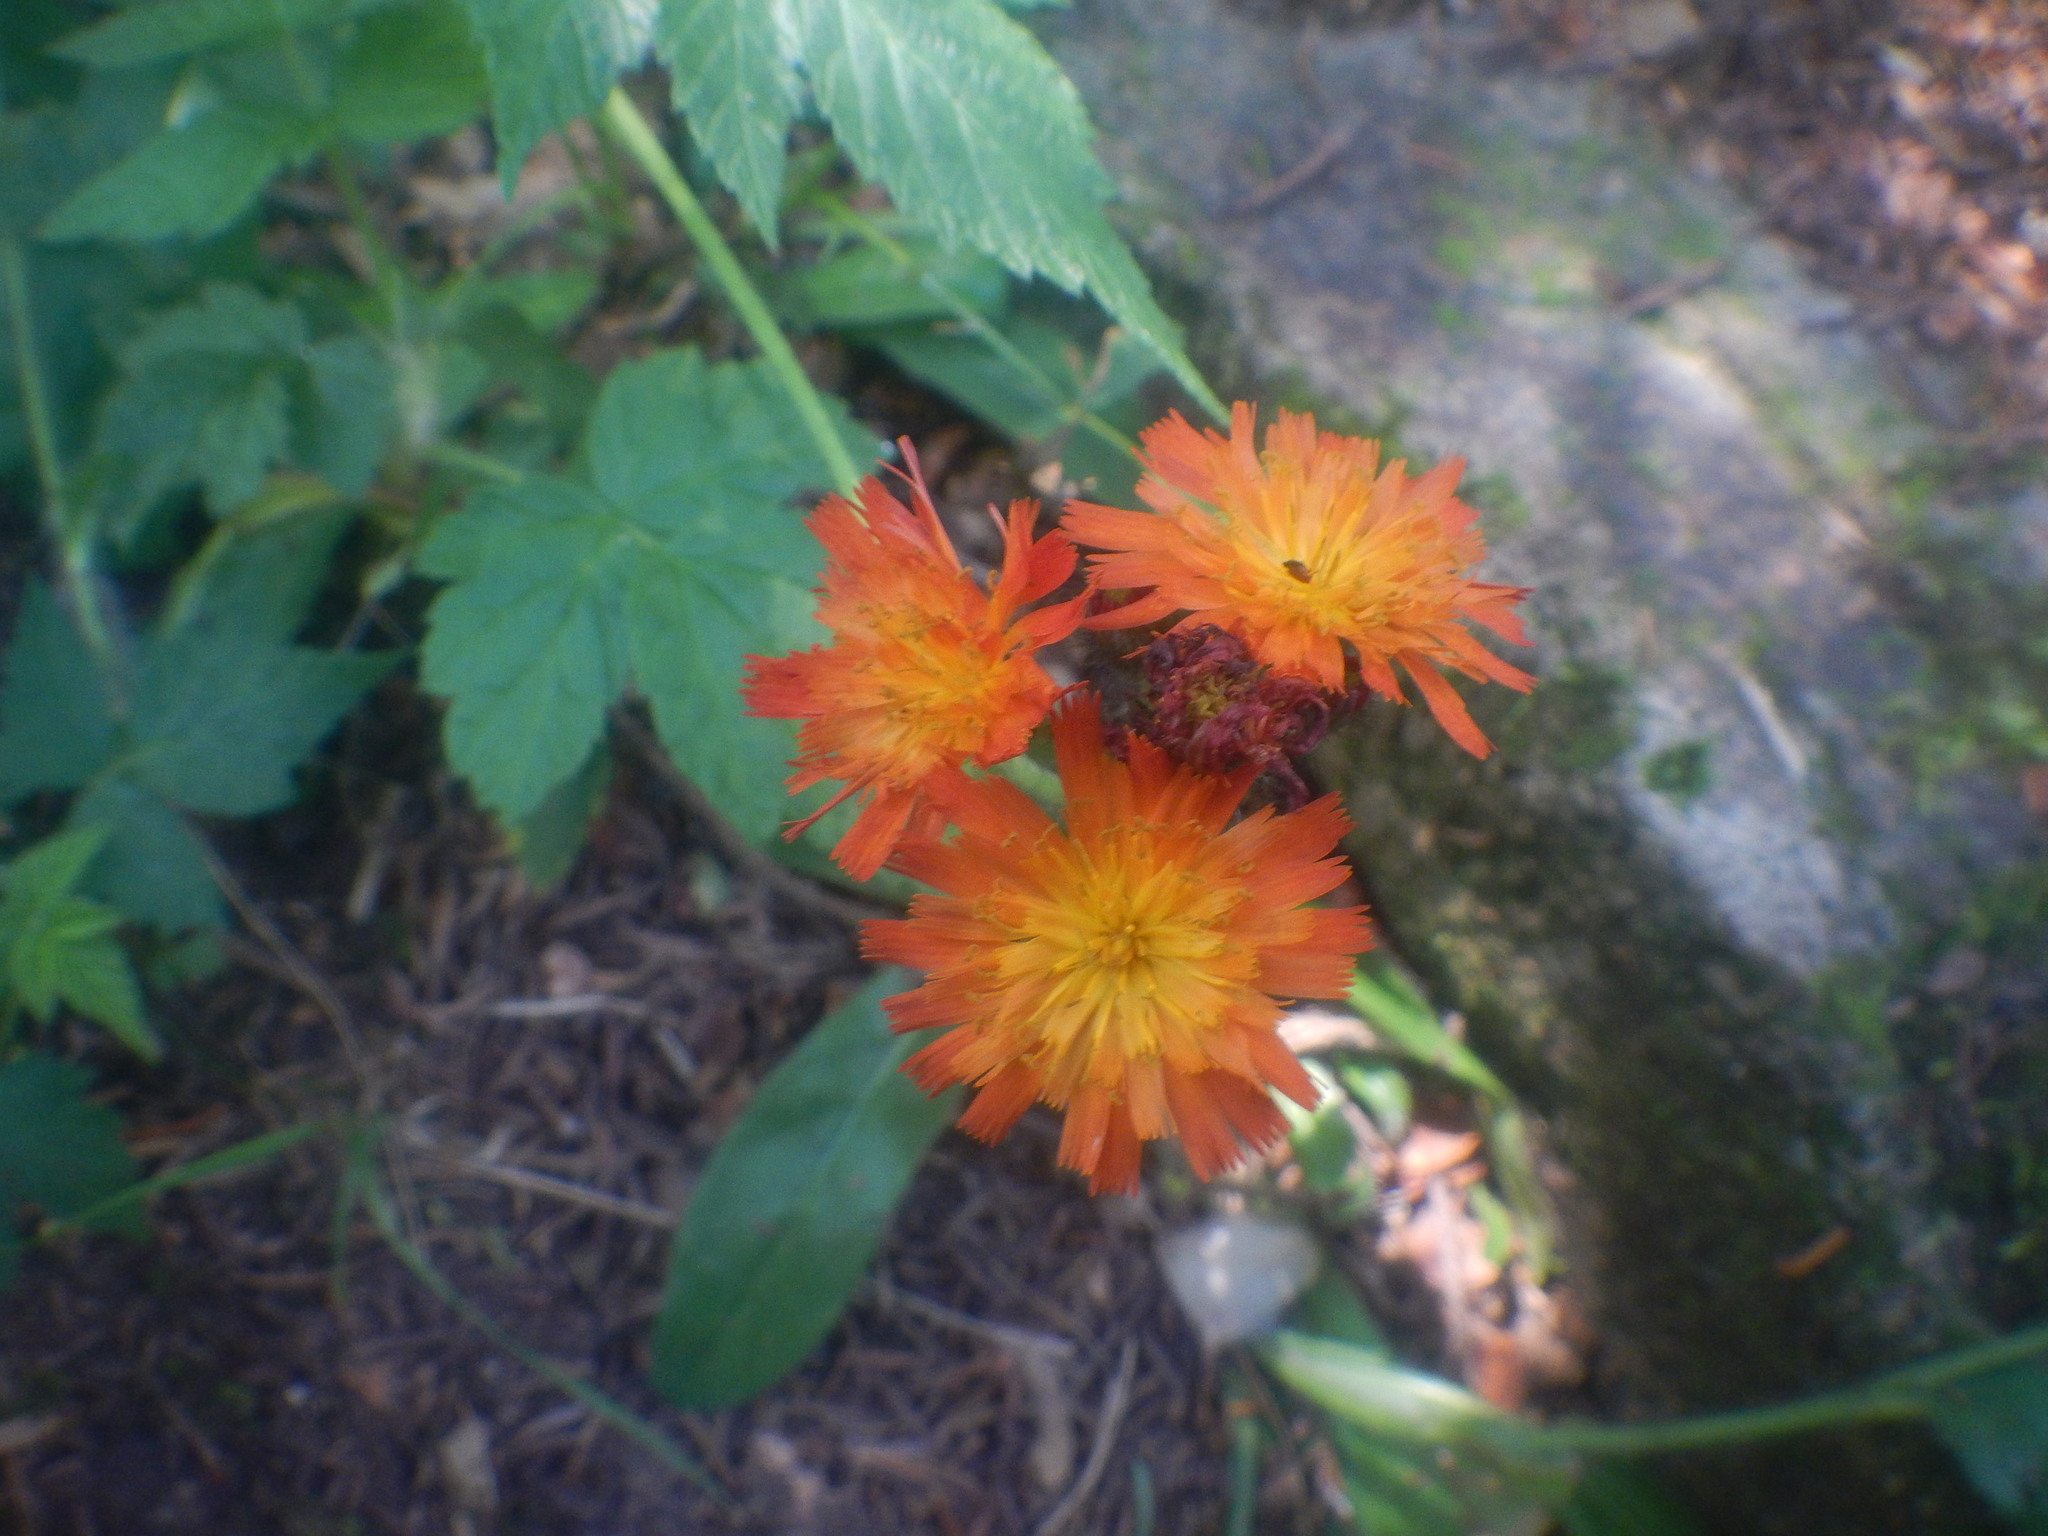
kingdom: Plantae
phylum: Tracheophyta
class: Magnoliopsida
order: Asterales
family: Asteraceae
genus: Pilosella
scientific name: Pilosella aurantiaca
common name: Fox-and-cubs
